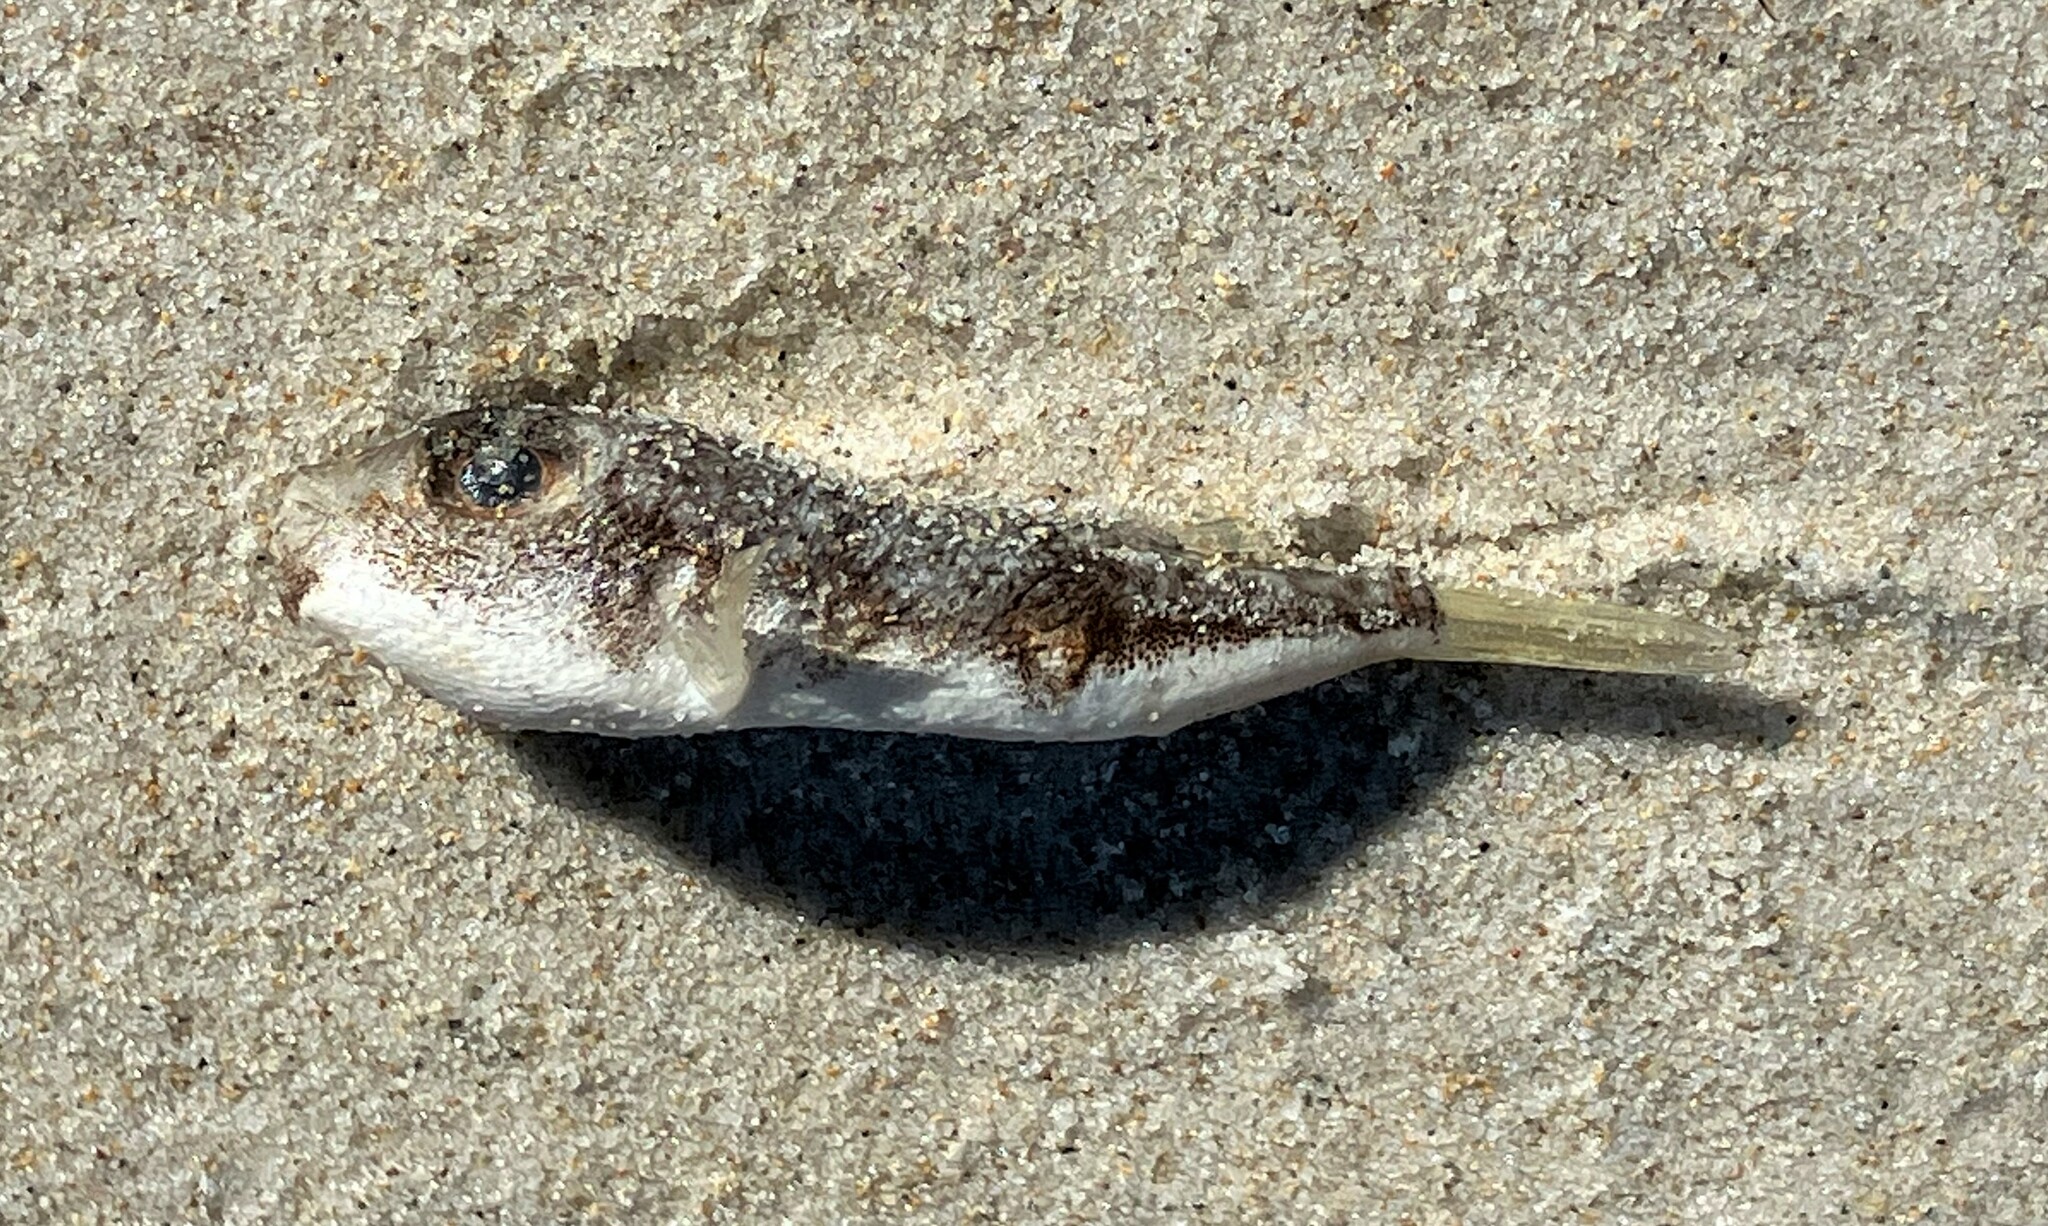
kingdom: Animalia
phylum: Chordata
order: Tetraodontiformes
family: Tetraodontidae
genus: Polyspina
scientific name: Polyspina piosae
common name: Orange-barred pufferfish
